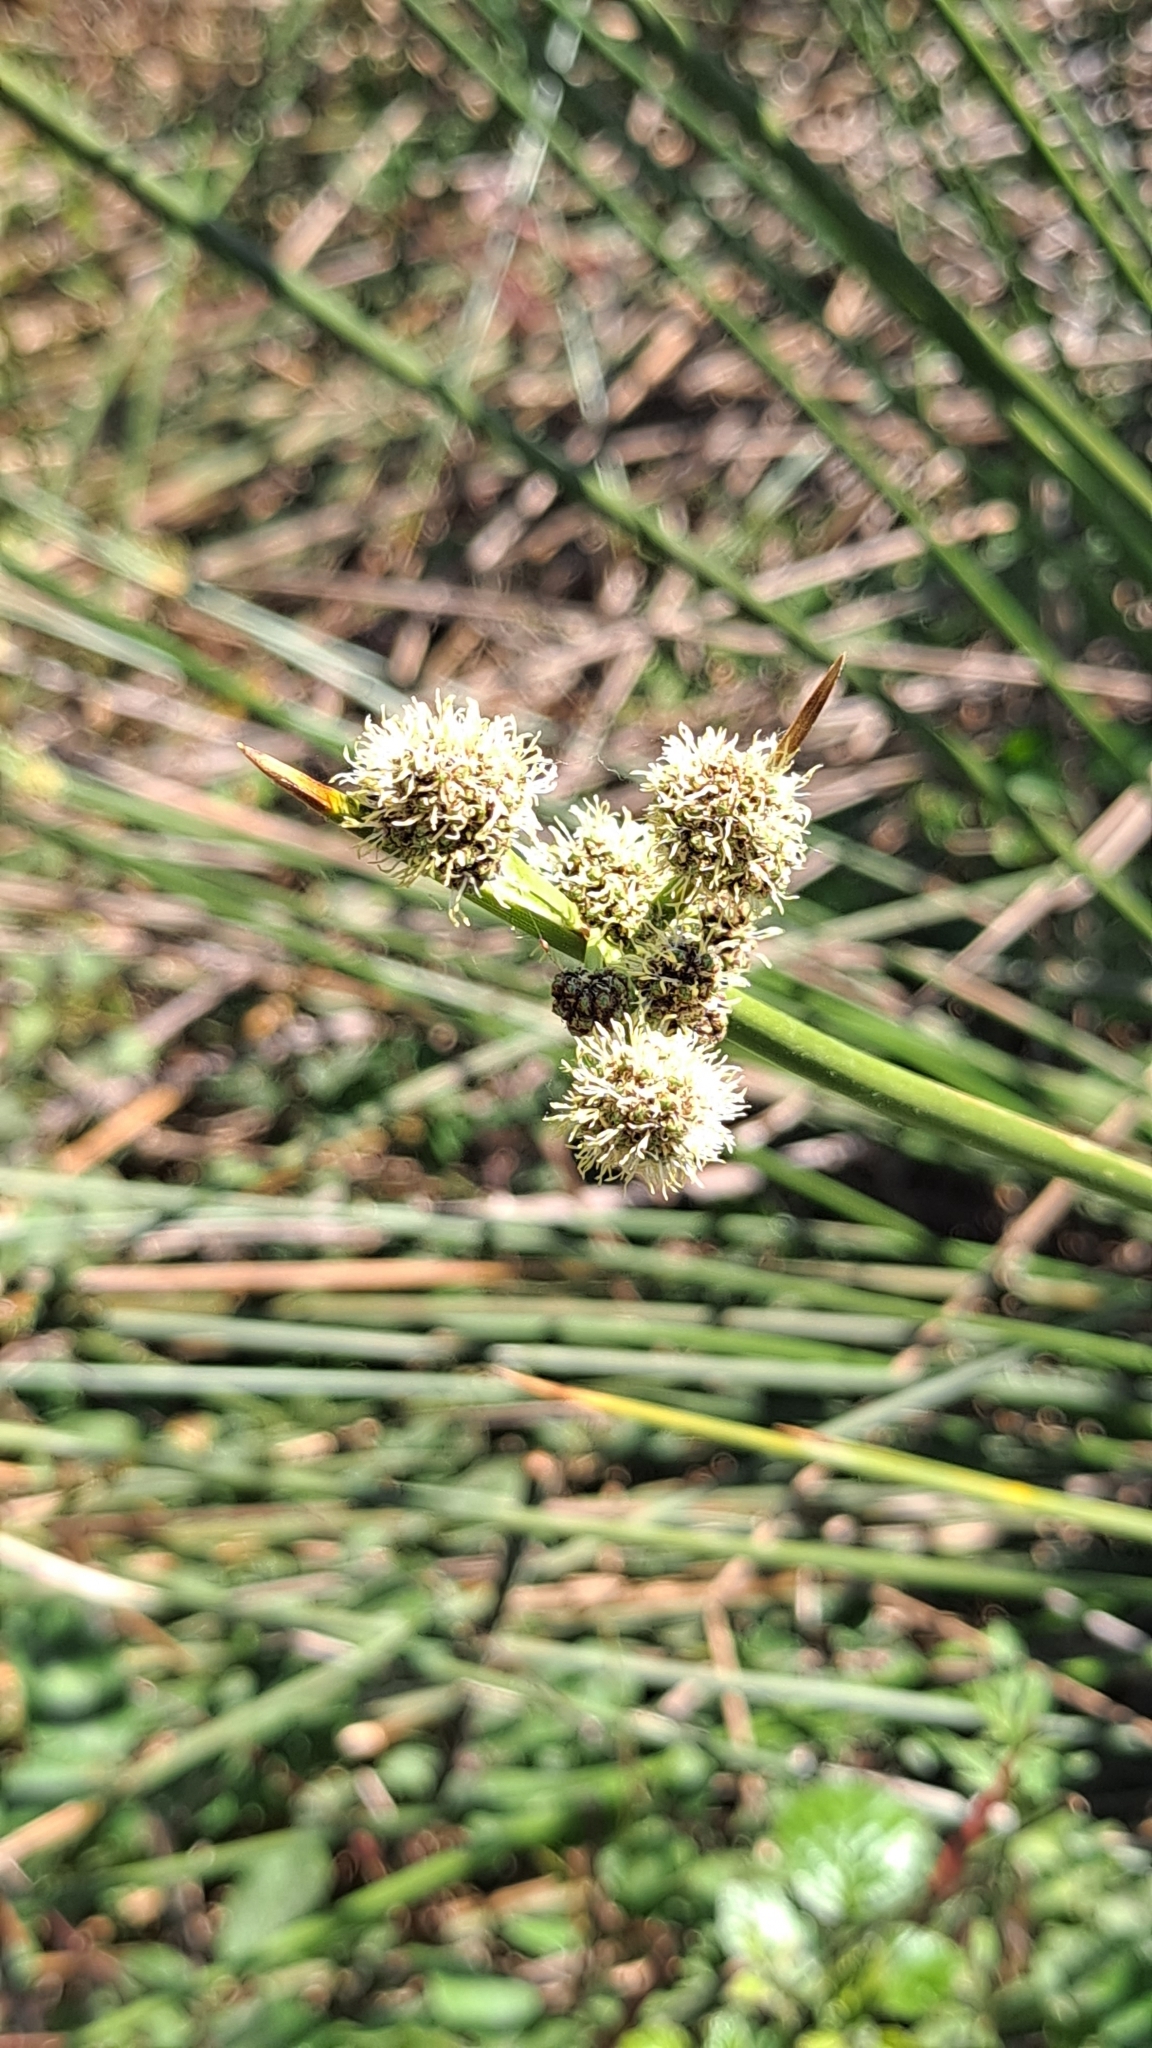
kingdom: Plantae
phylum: Tracheophyta
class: Liliopsida
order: Poales
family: Cyperaceae
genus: Scirpoides
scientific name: Scirpoides holoschoenus
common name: Round-headed club-rush
